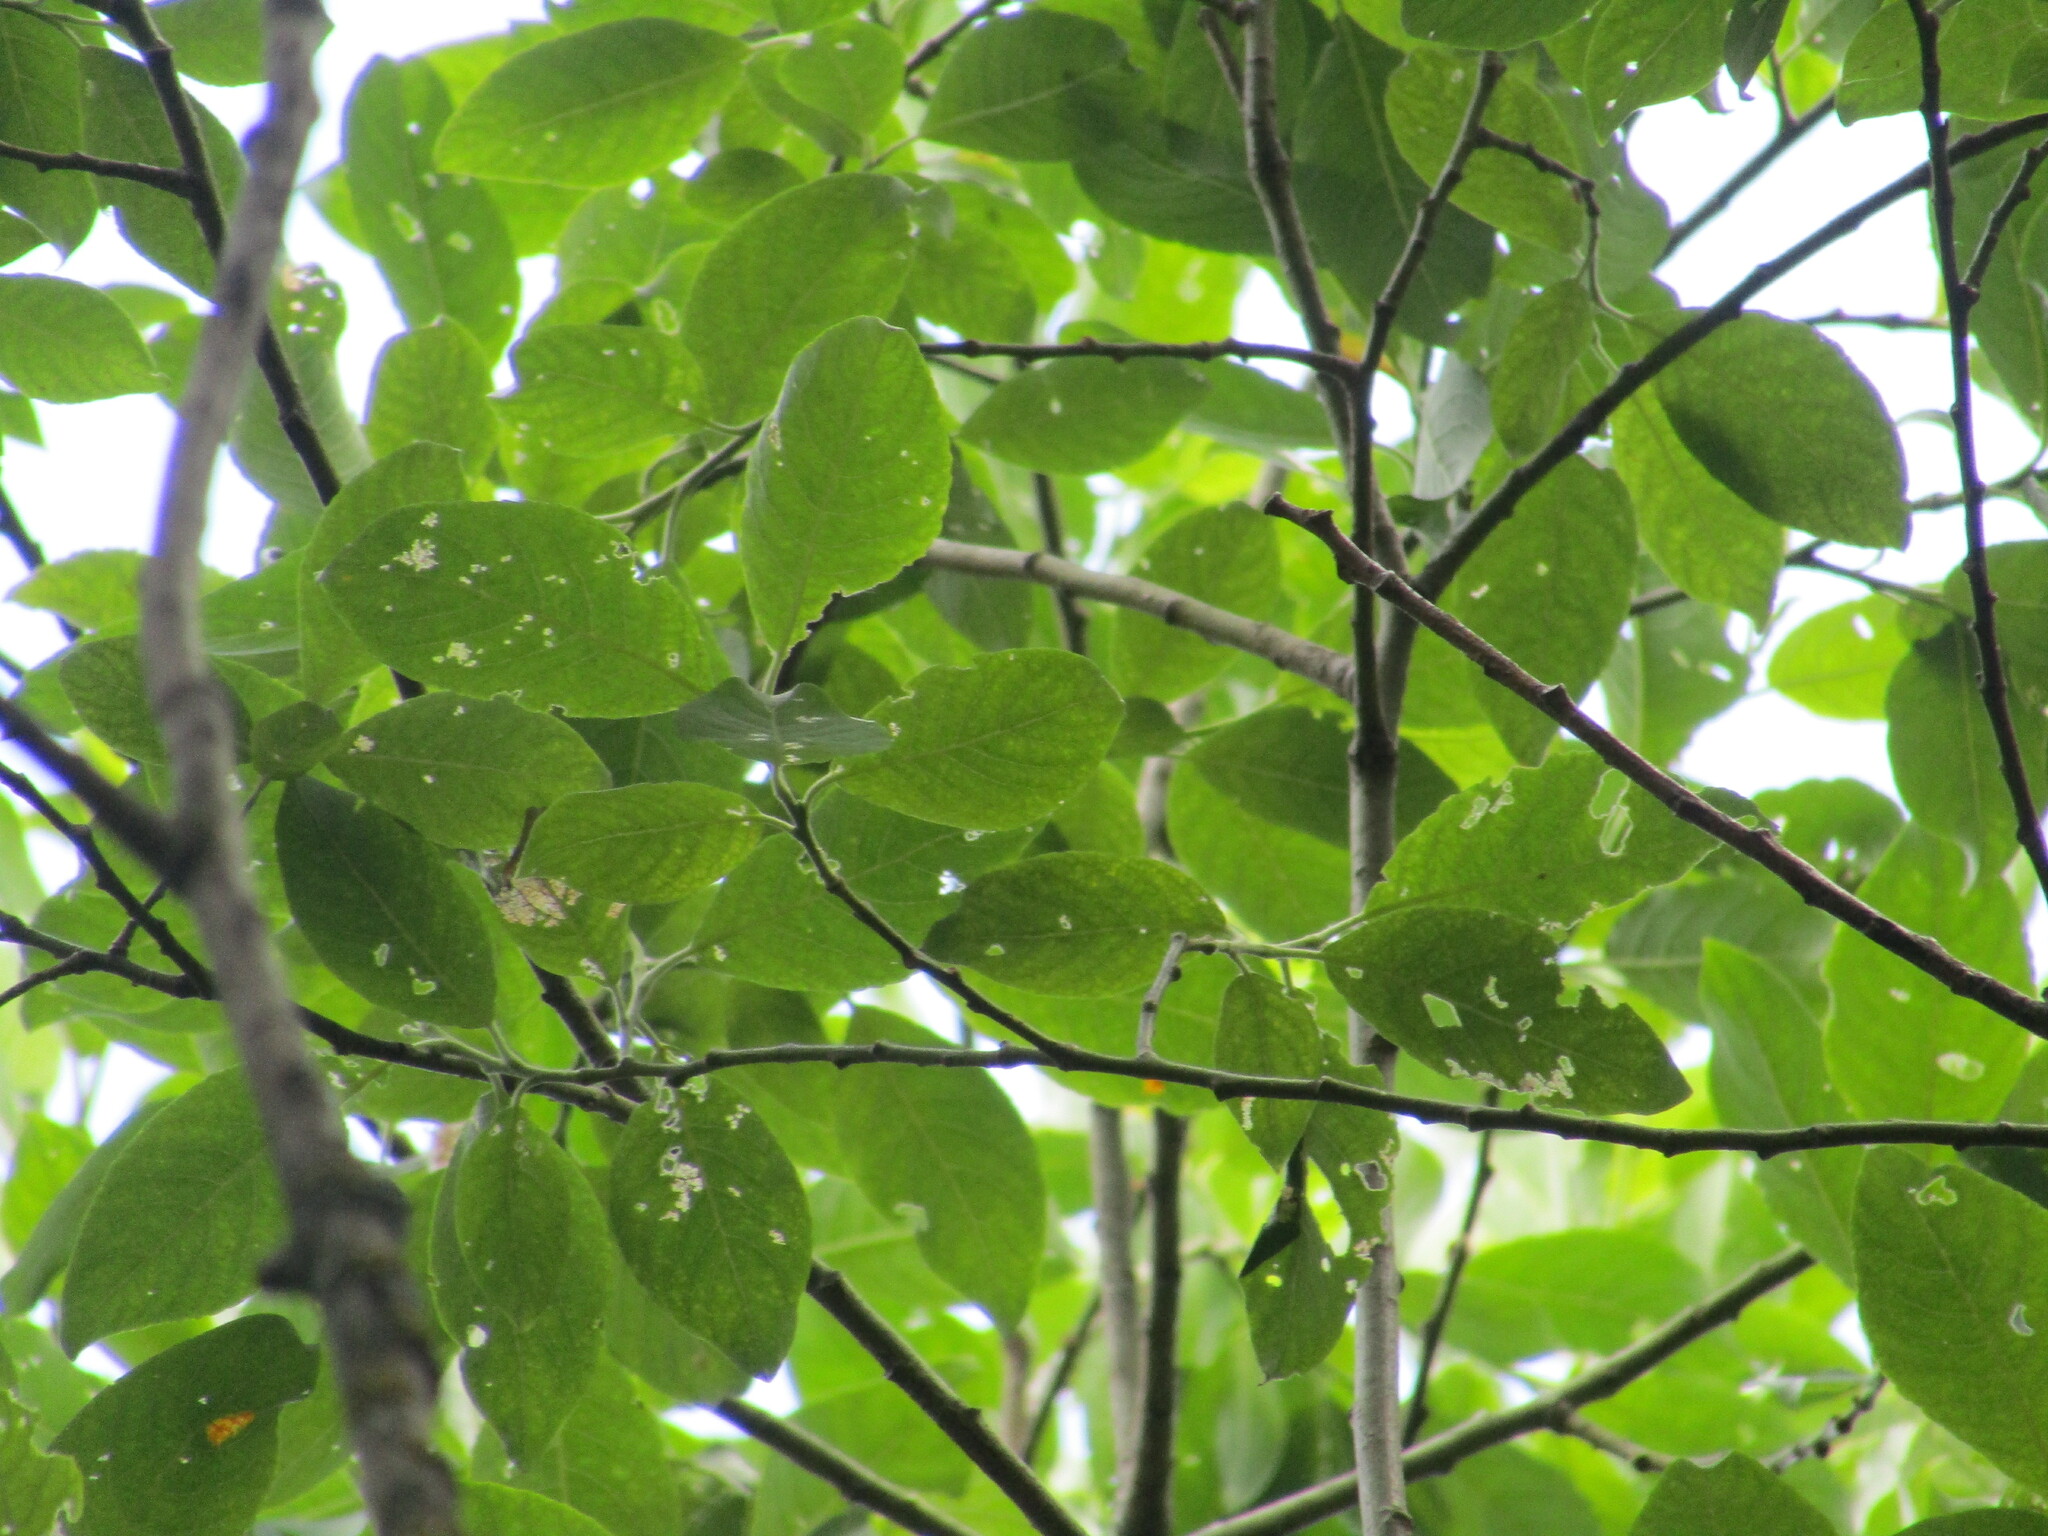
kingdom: Plantae
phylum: Tracheophyta
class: Magnoliopsida
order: Malpighiales
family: Salicaceae
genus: Salix
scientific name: Salix caprea
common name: Goat willow
